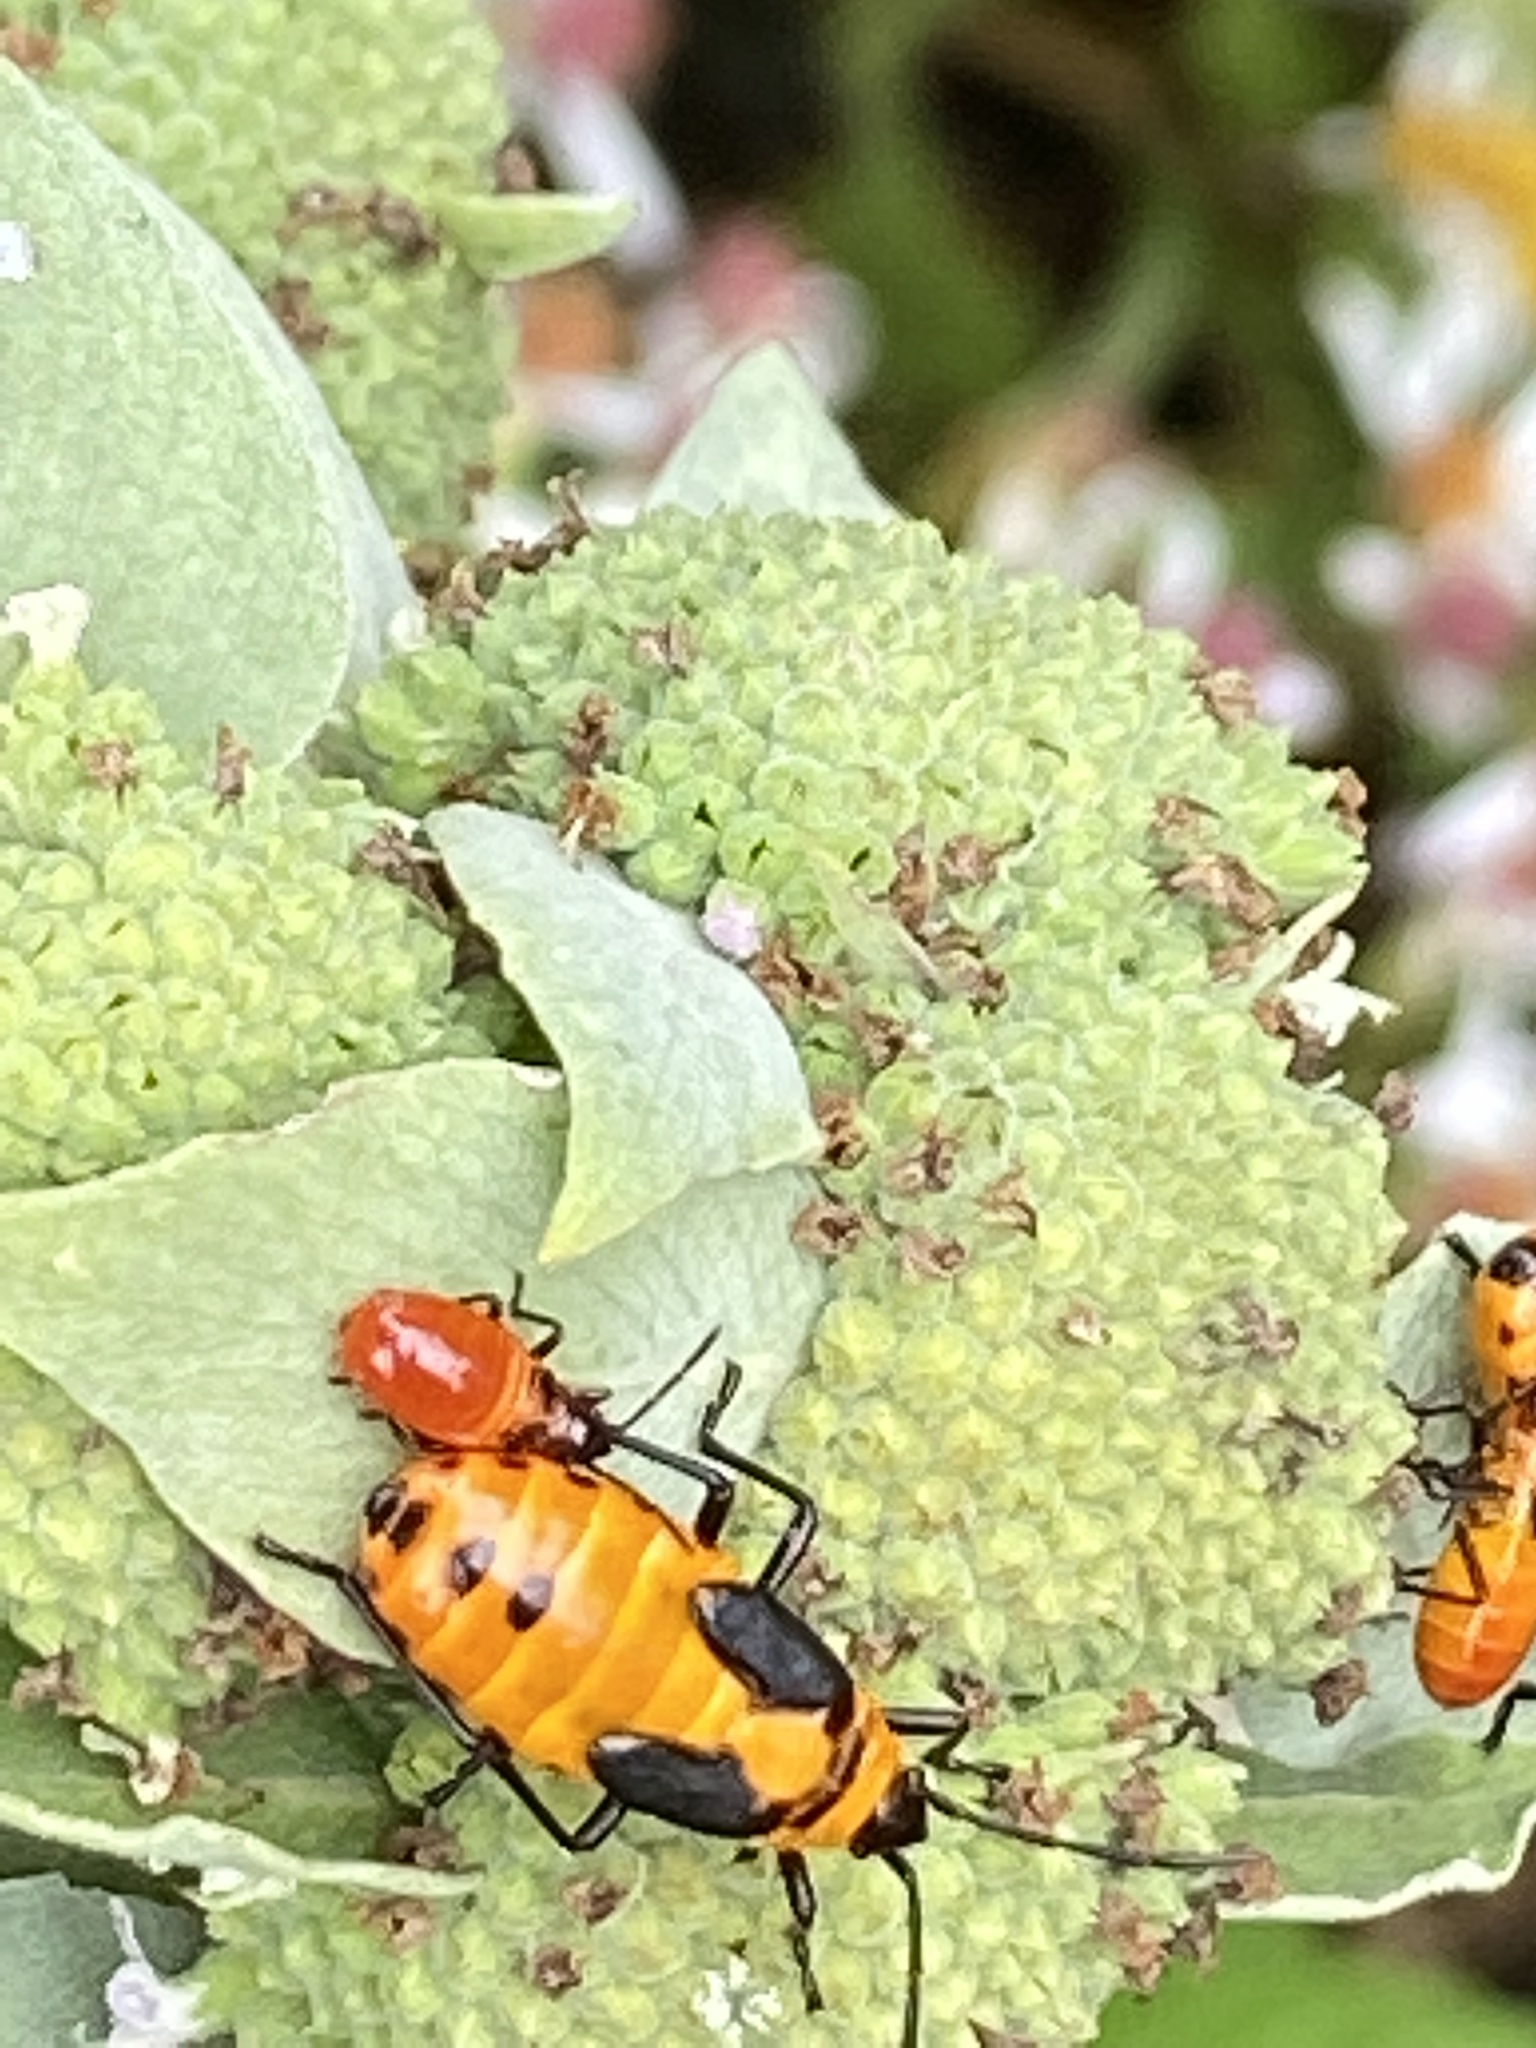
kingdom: Animalia
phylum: Arthropoda
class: Insecta
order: Hemiptera
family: Lygaeidae
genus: Oncopeltus
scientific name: Oncopeltus fasciatus
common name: Large milkweed bug
